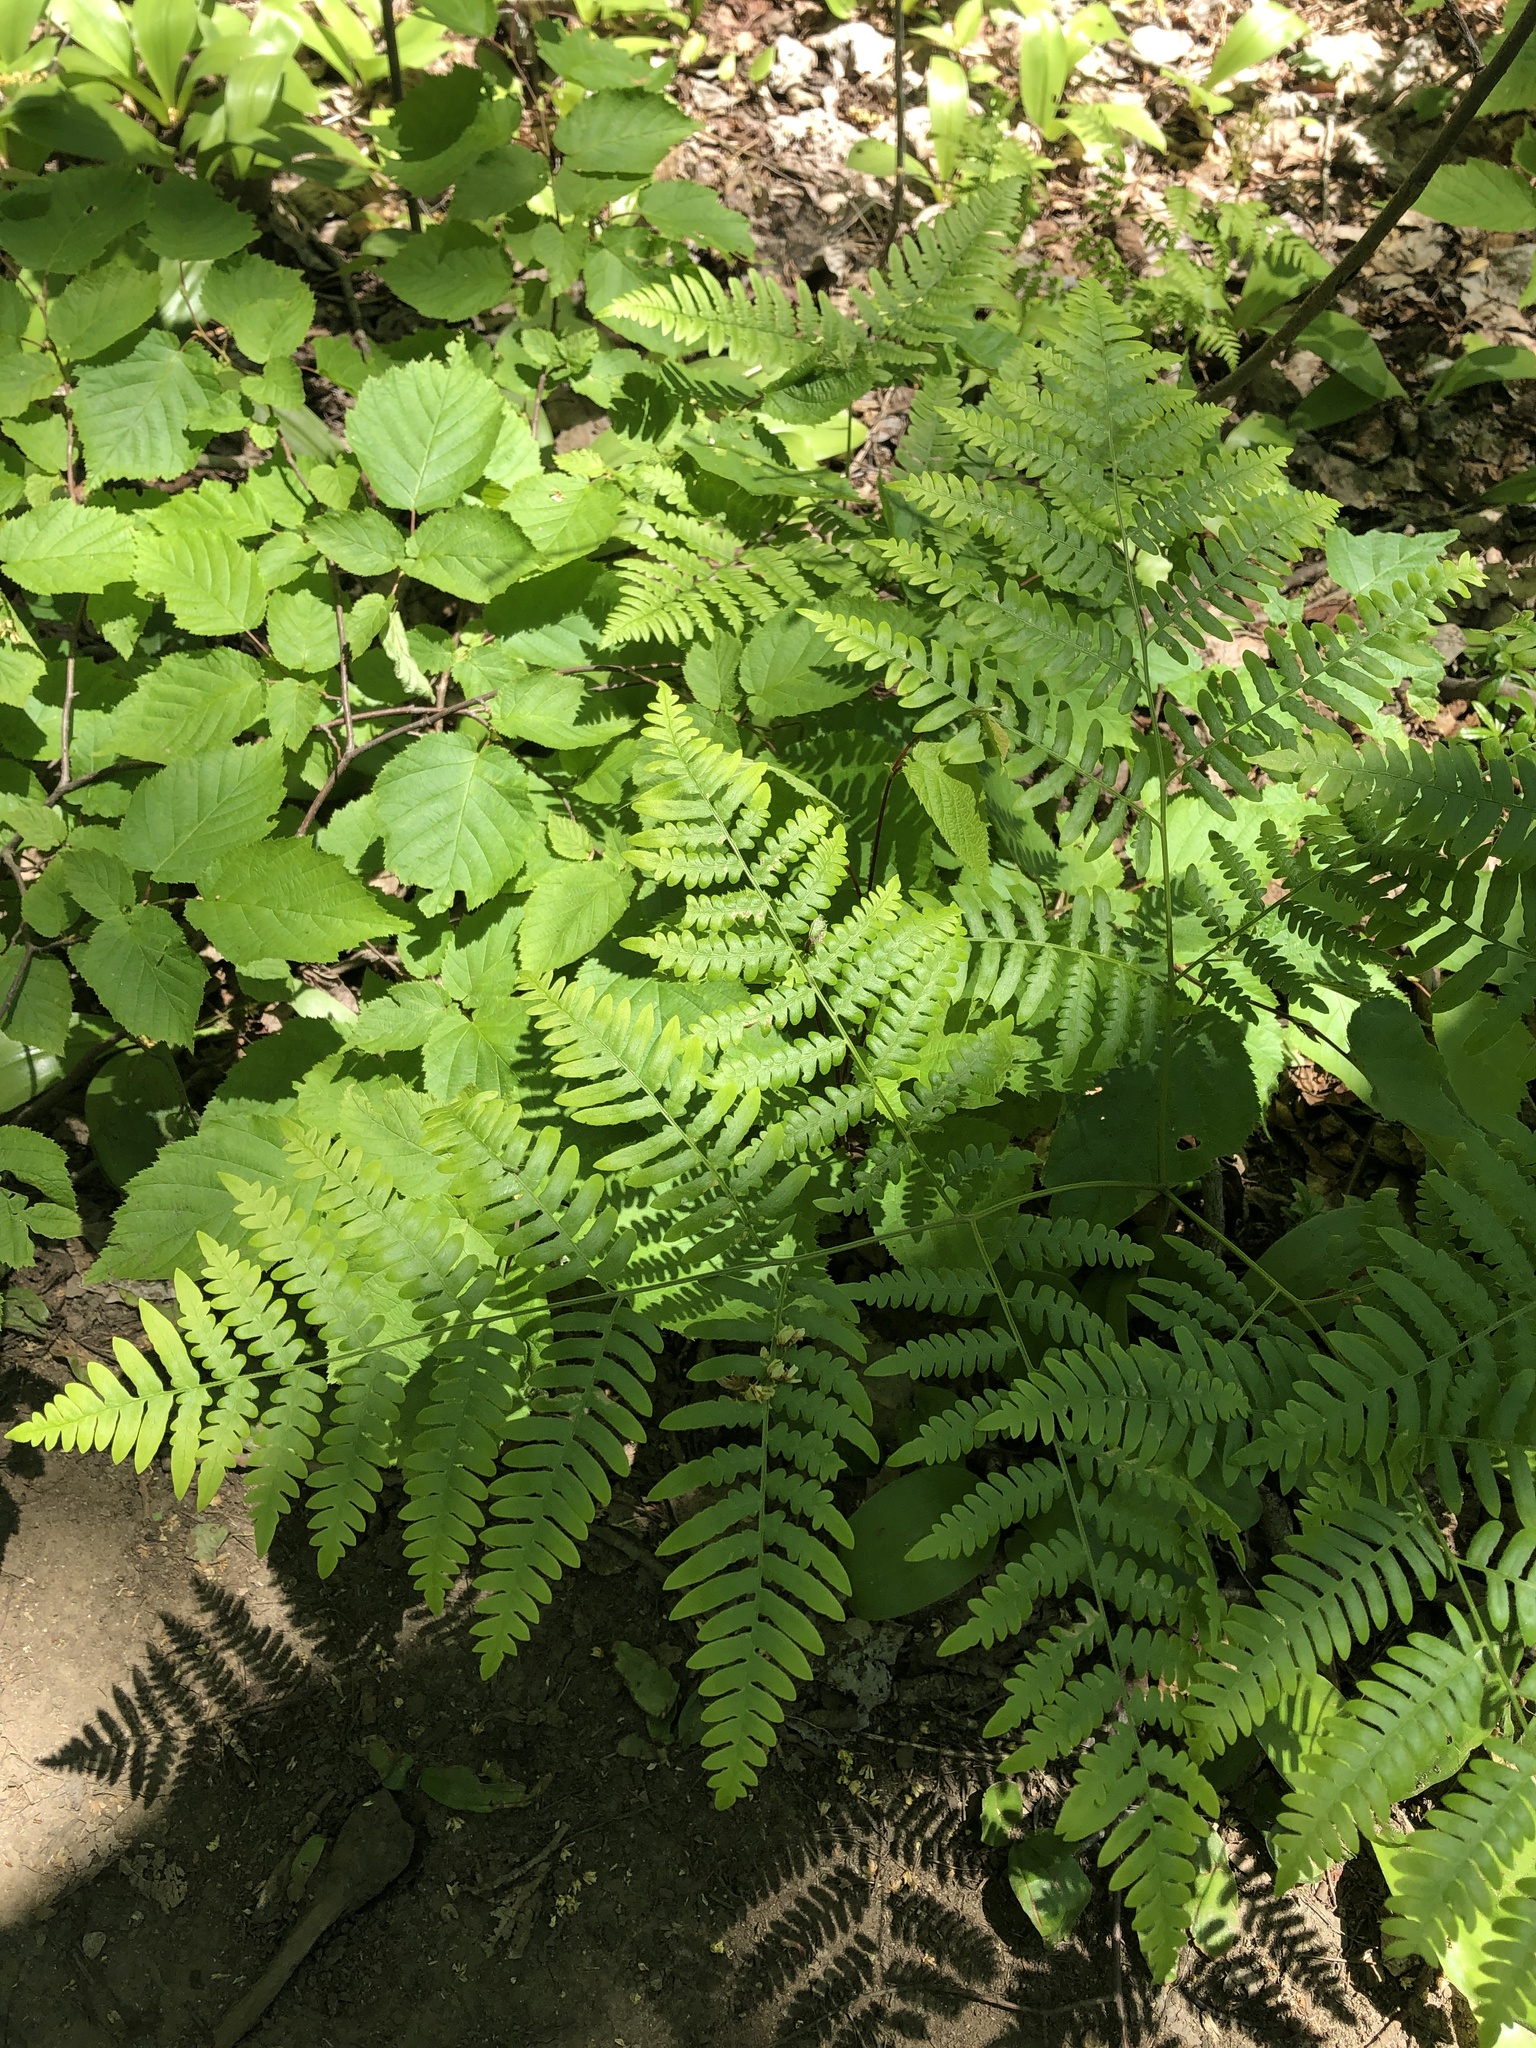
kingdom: Plantae
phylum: Tracheophyta
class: Polypodiopsida
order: Polypodiales
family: Dennstaedtiaceae
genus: Pteridium
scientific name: Pteridium aquilinum
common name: Bracken
